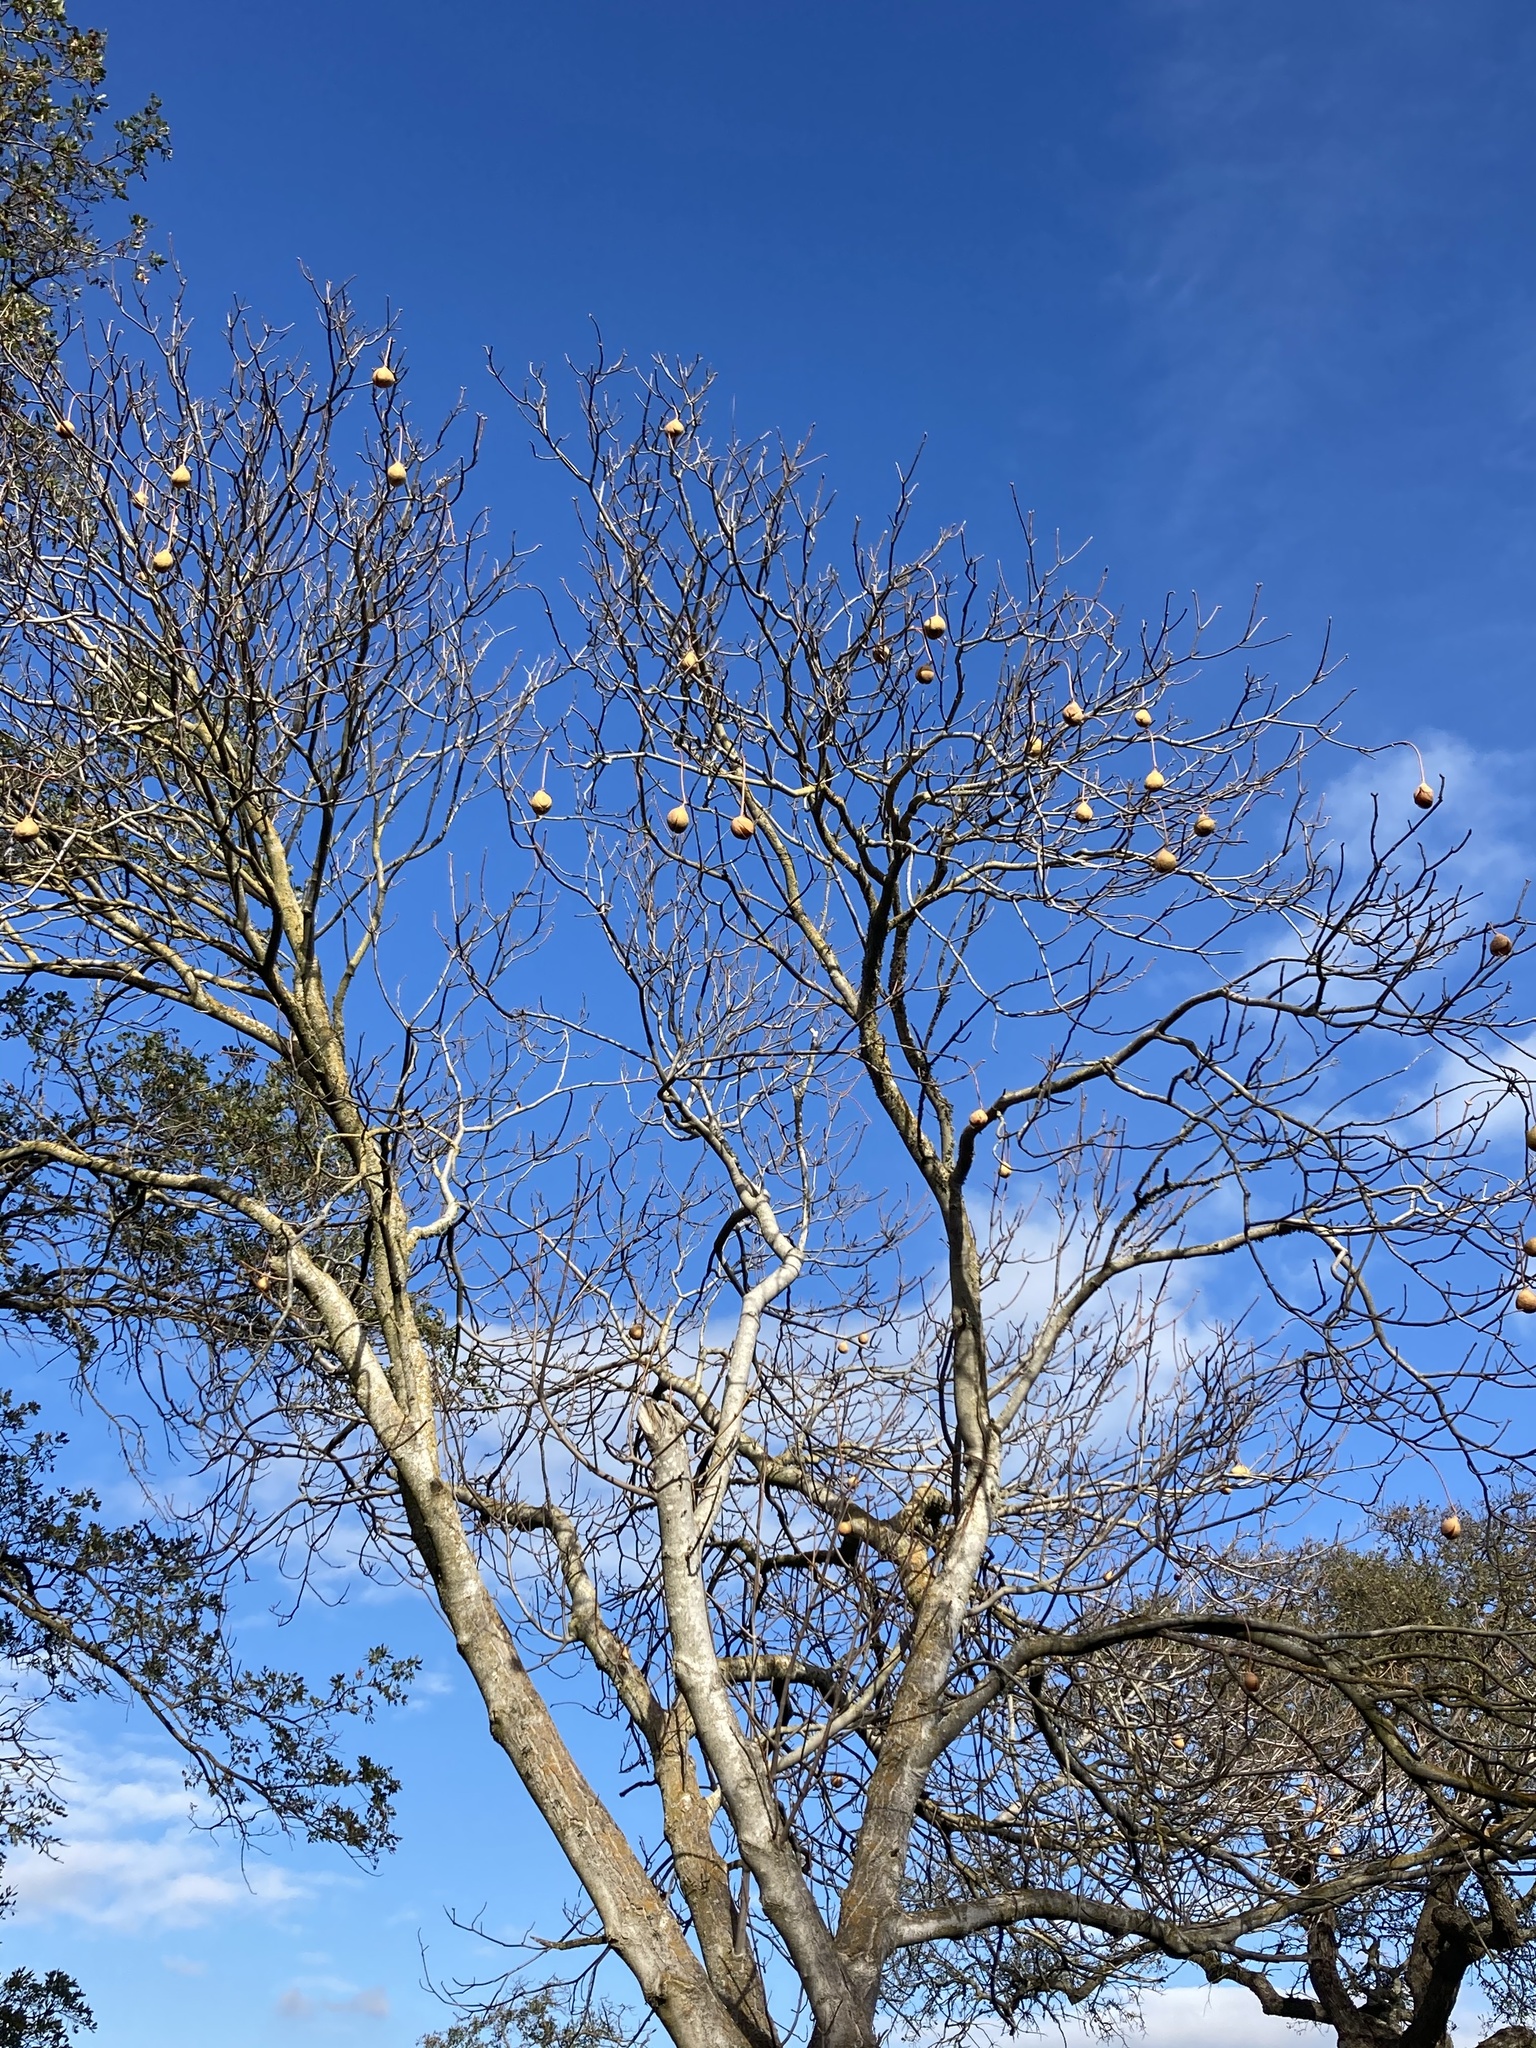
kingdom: Plantae
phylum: Tracheophyta
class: Magnoliopsida
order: Sapindales
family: Sapindaceae
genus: Aesculus
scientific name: Aesculus californica
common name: California buckeye
